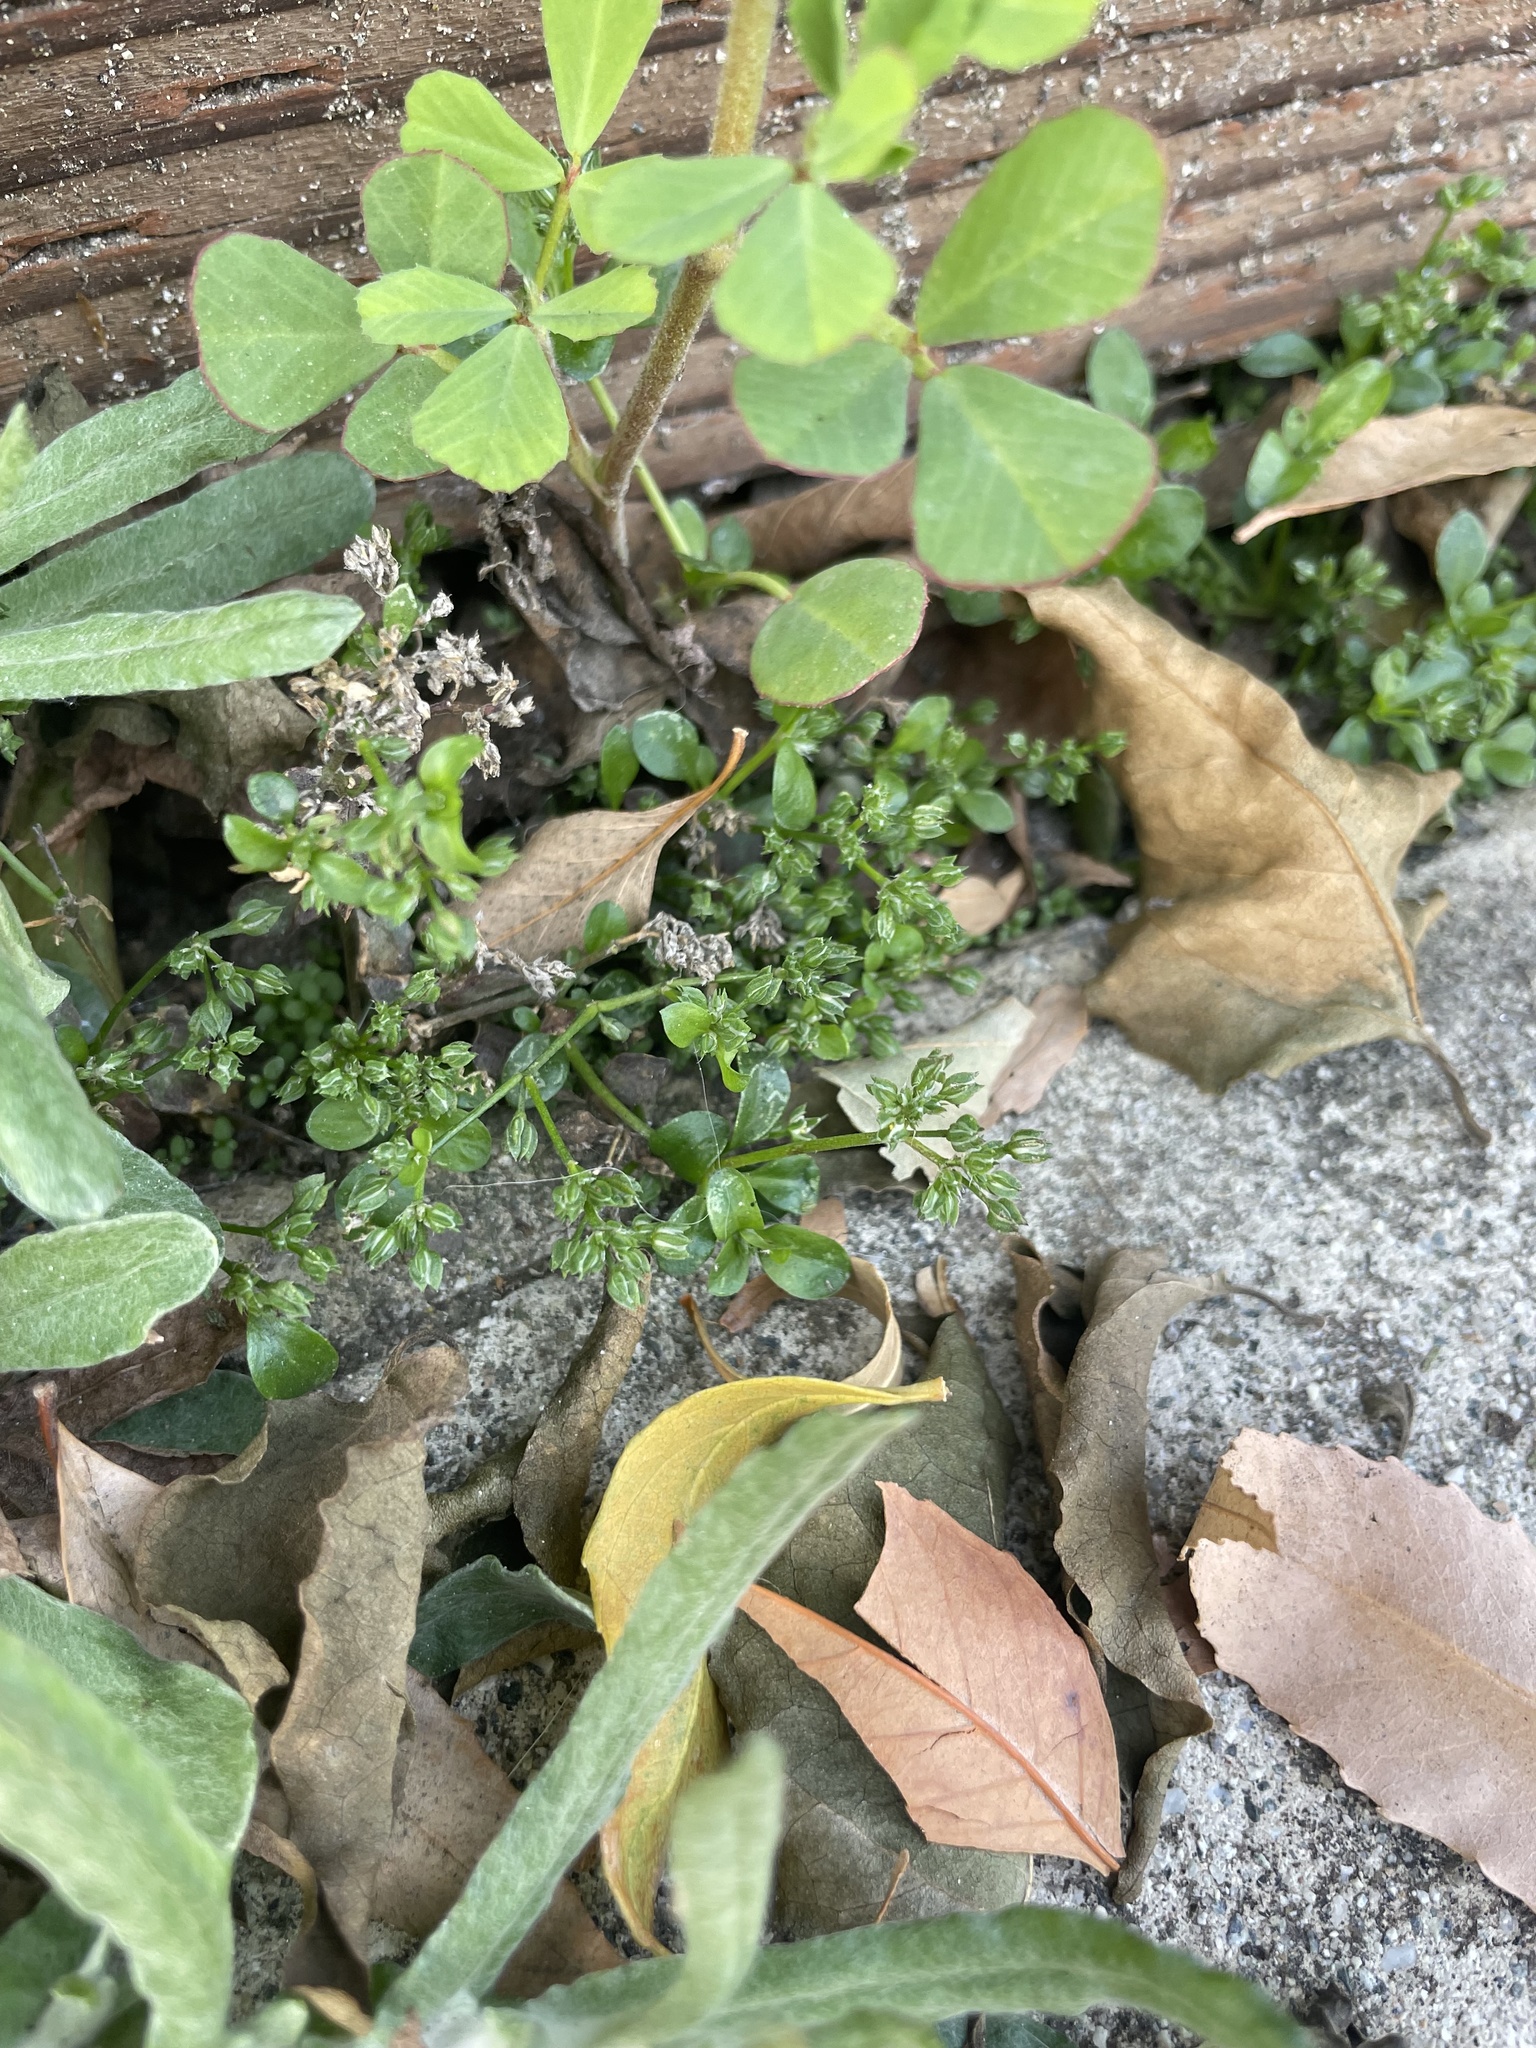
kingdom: Plantae
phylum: Tracheophyta
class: Magnoliopsida
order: Caryophyllales
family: Caryophyllaceae
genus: Polycarpon
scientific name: Polycarpon tetraphyllum
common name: Four-leaved all-seed
